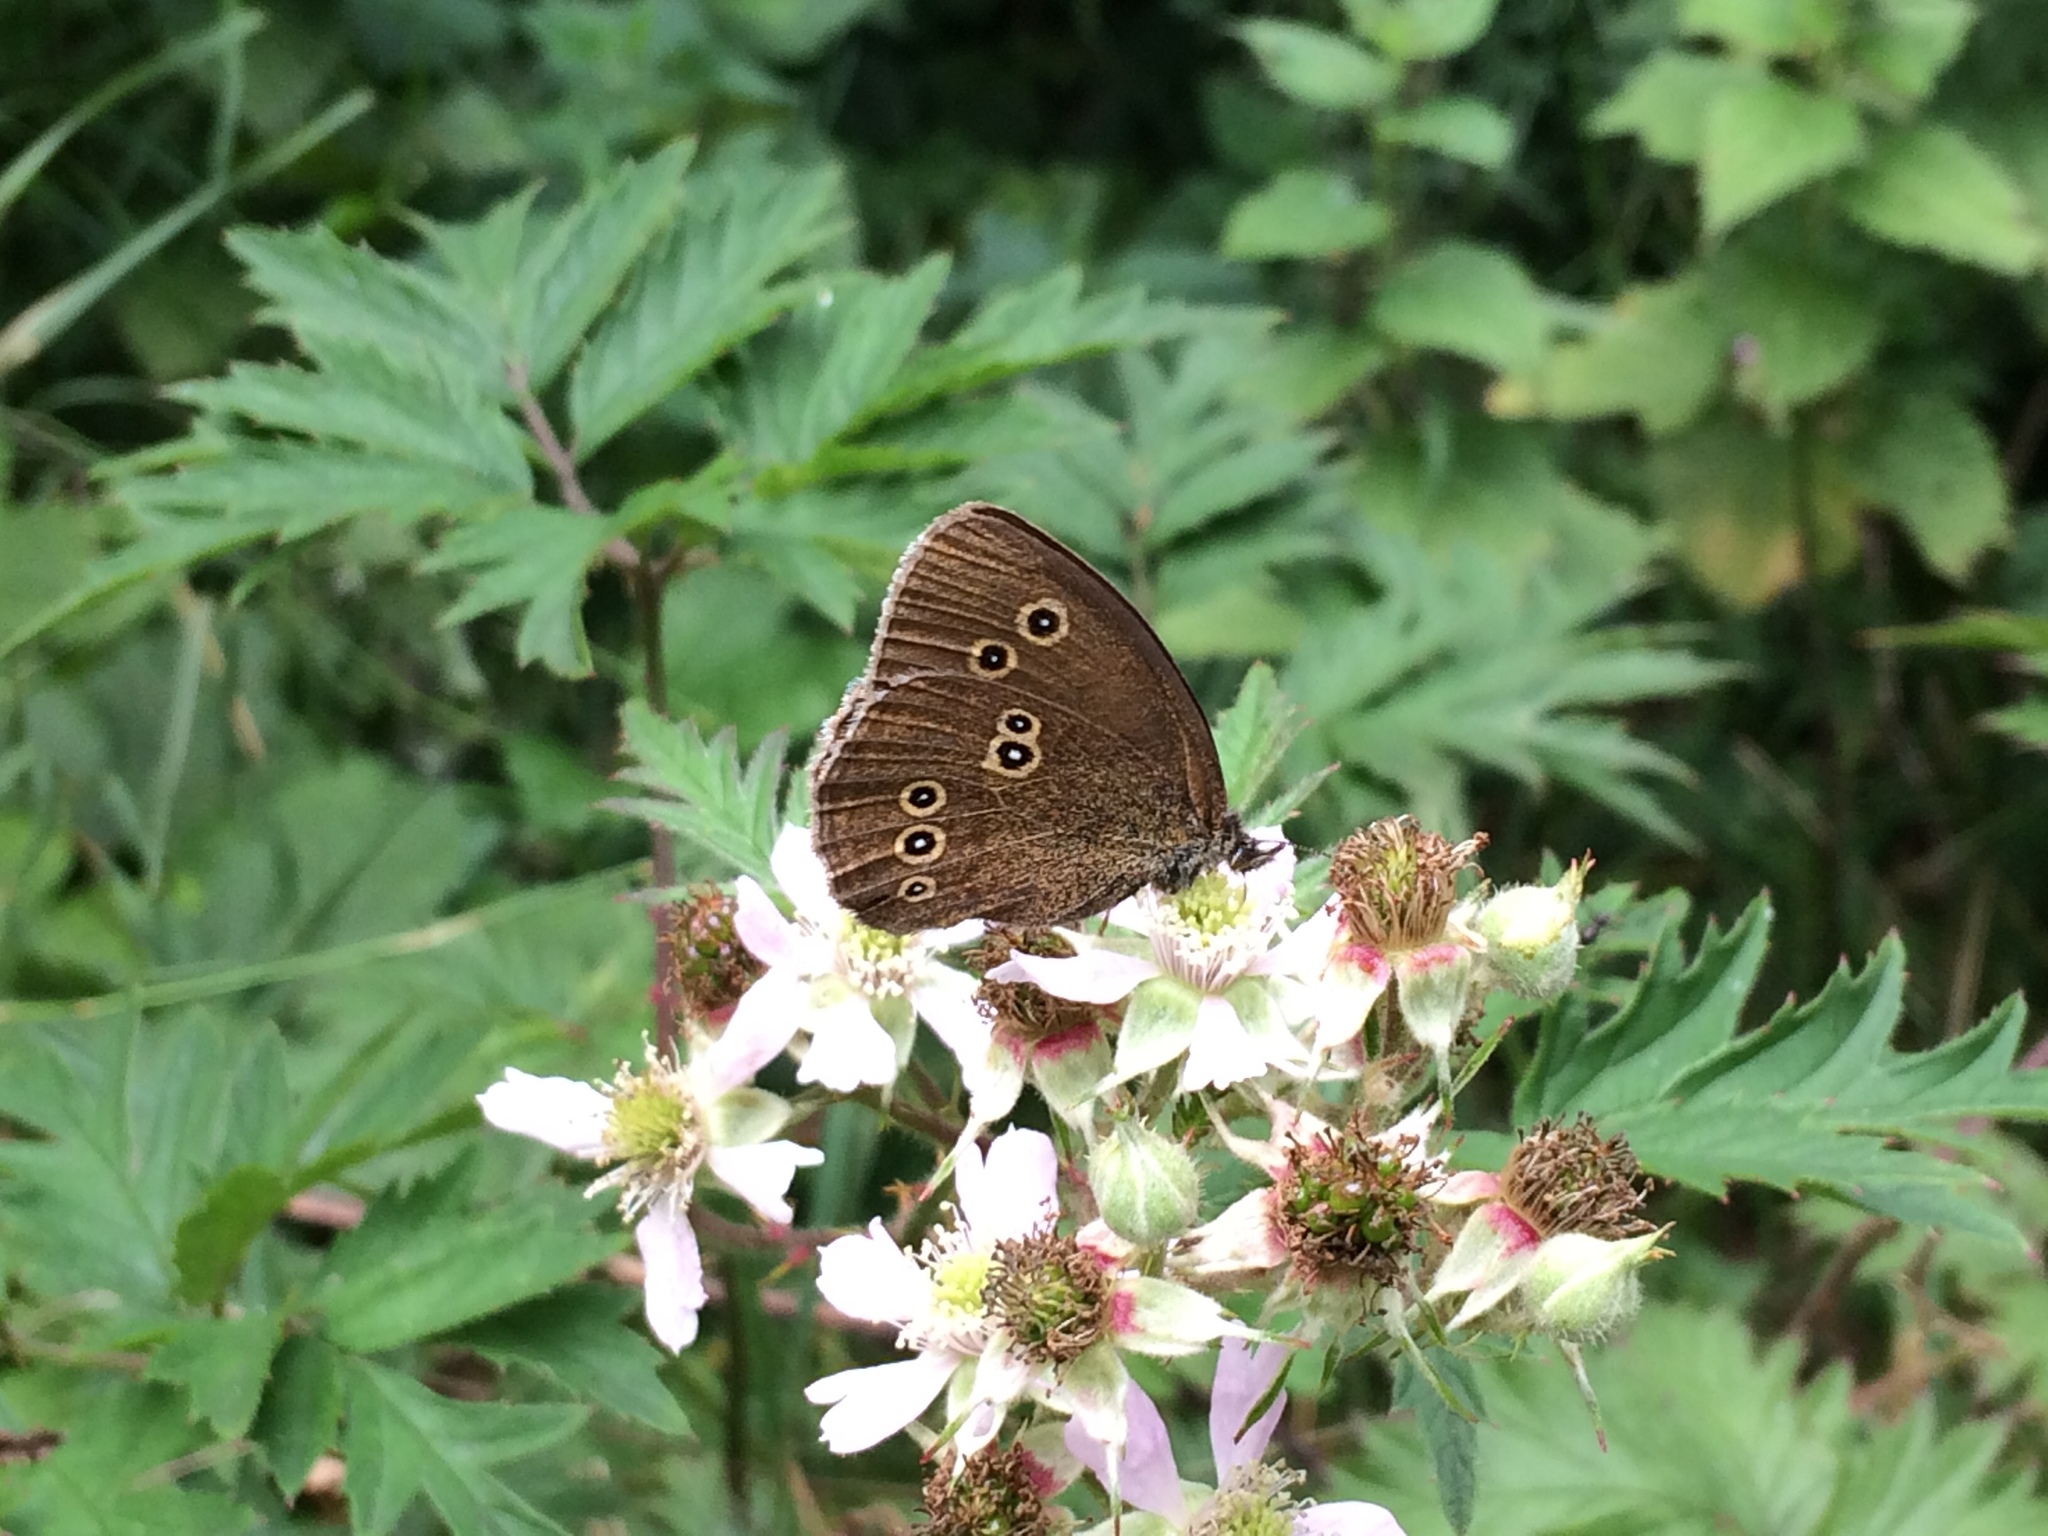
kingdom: Animalia
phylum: Arthropoda
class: Insecta
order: Lepidoptera
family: Nymphalidae
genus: Aphantopus
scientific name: Aphantopus hyperantus
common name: Ringlet
